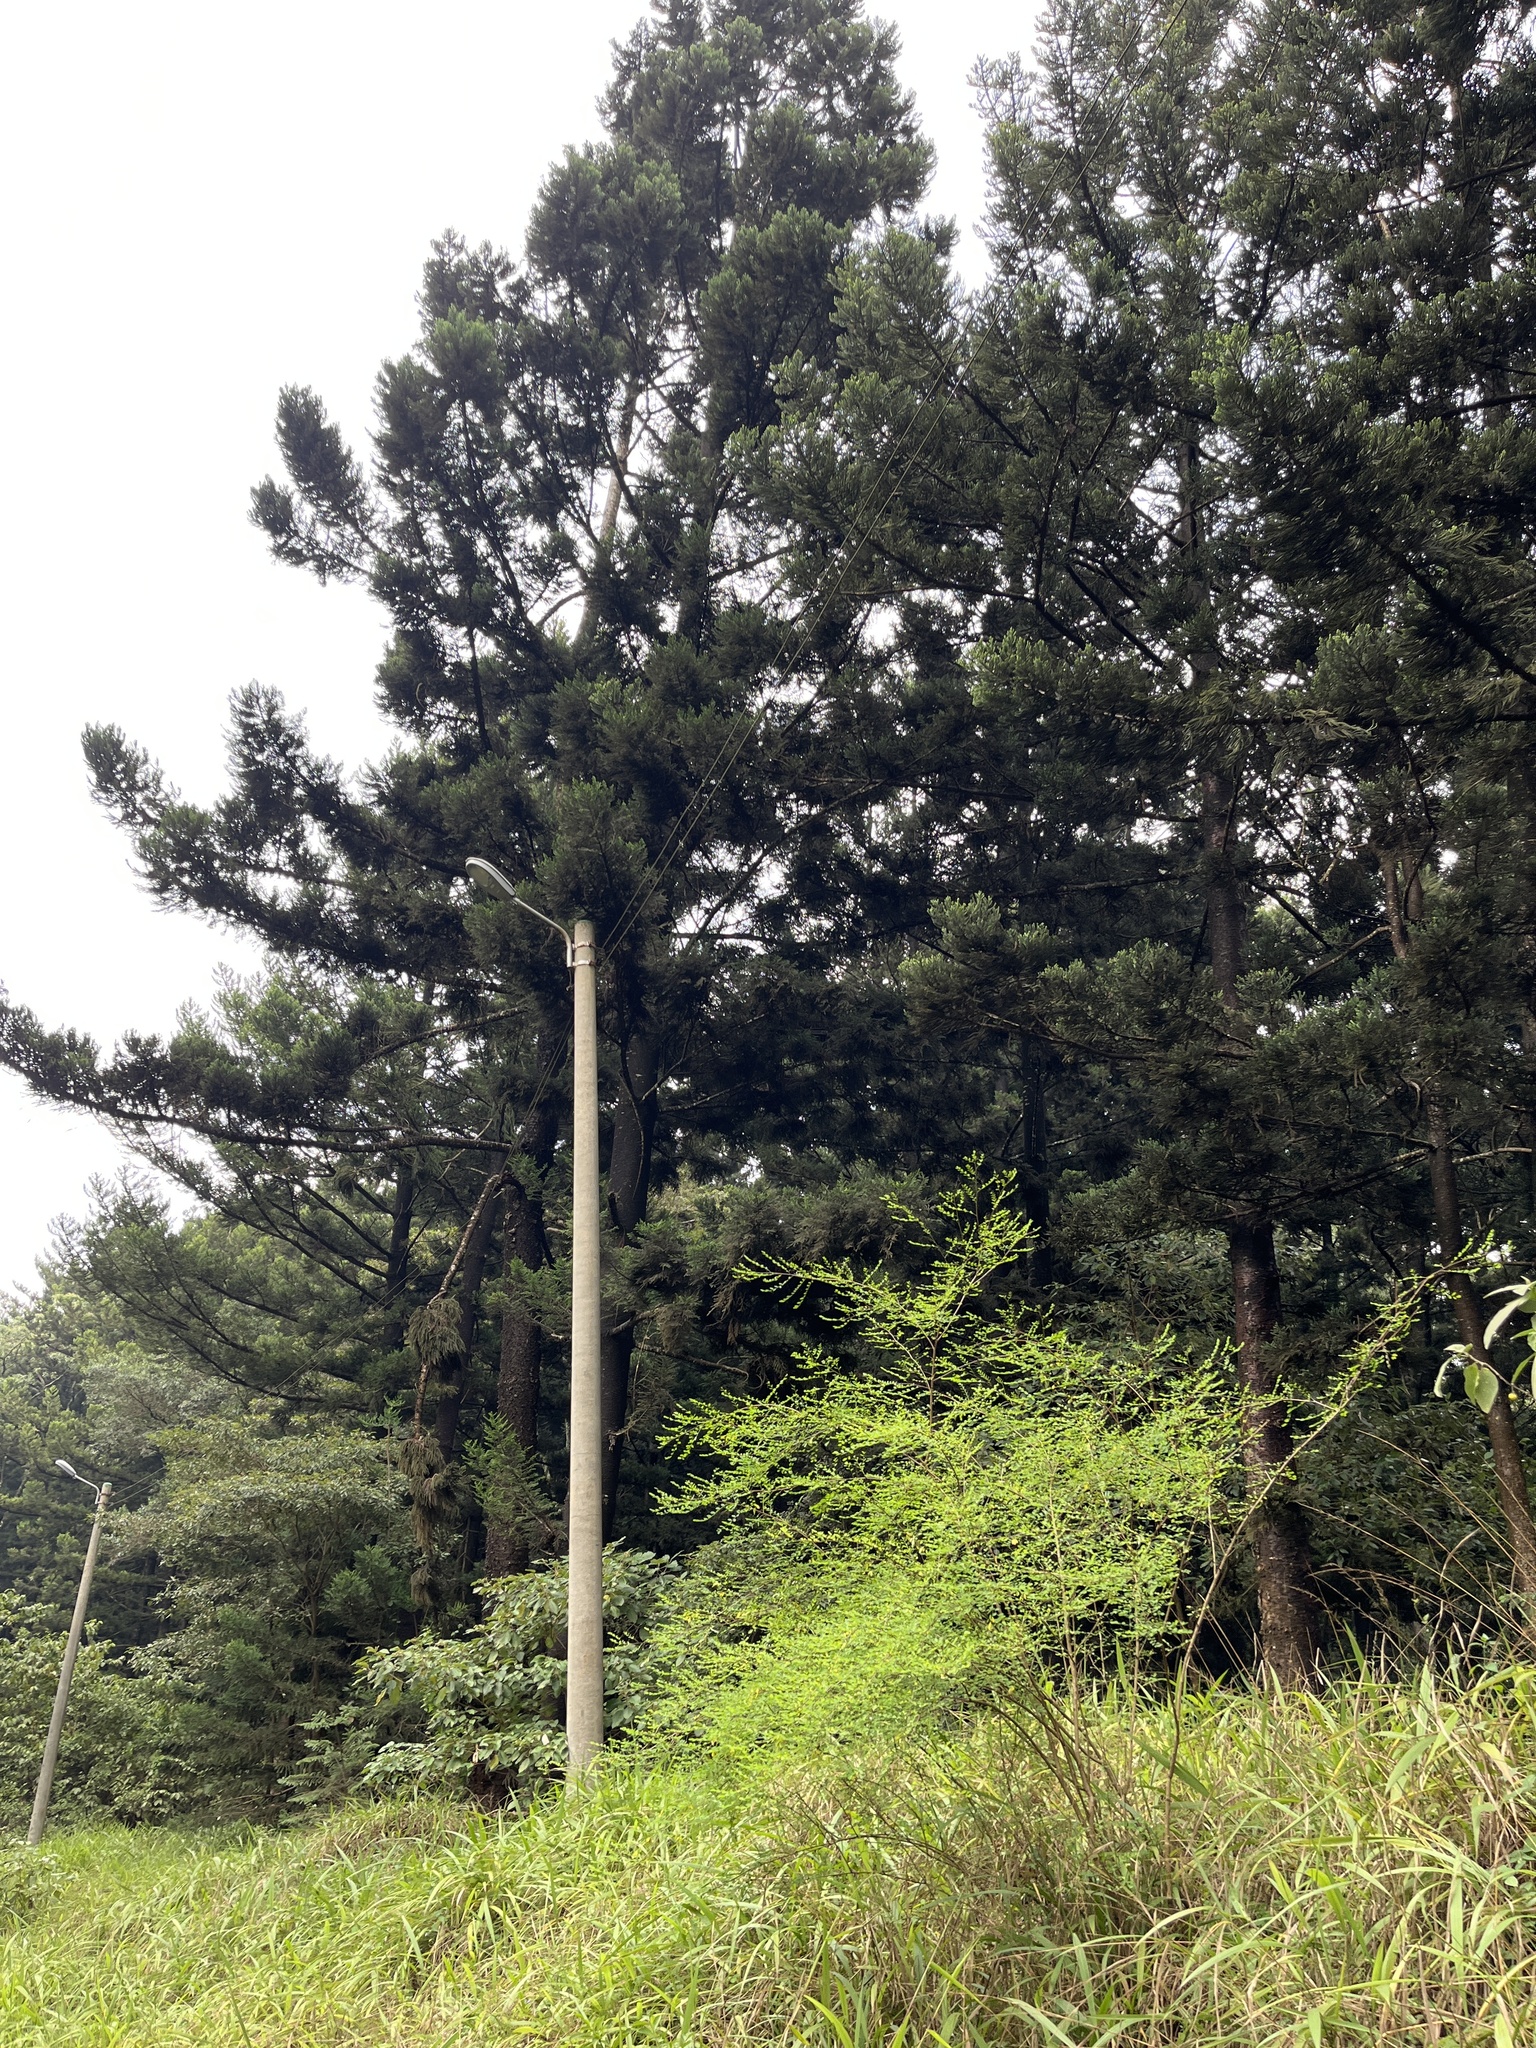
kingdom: Plantae
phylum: Tracheophyta
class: Pinopsida
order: Pinales
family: Araucariaceae
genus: Araucaria
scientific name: Araucaria cunninghamii
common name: Colonial pine
